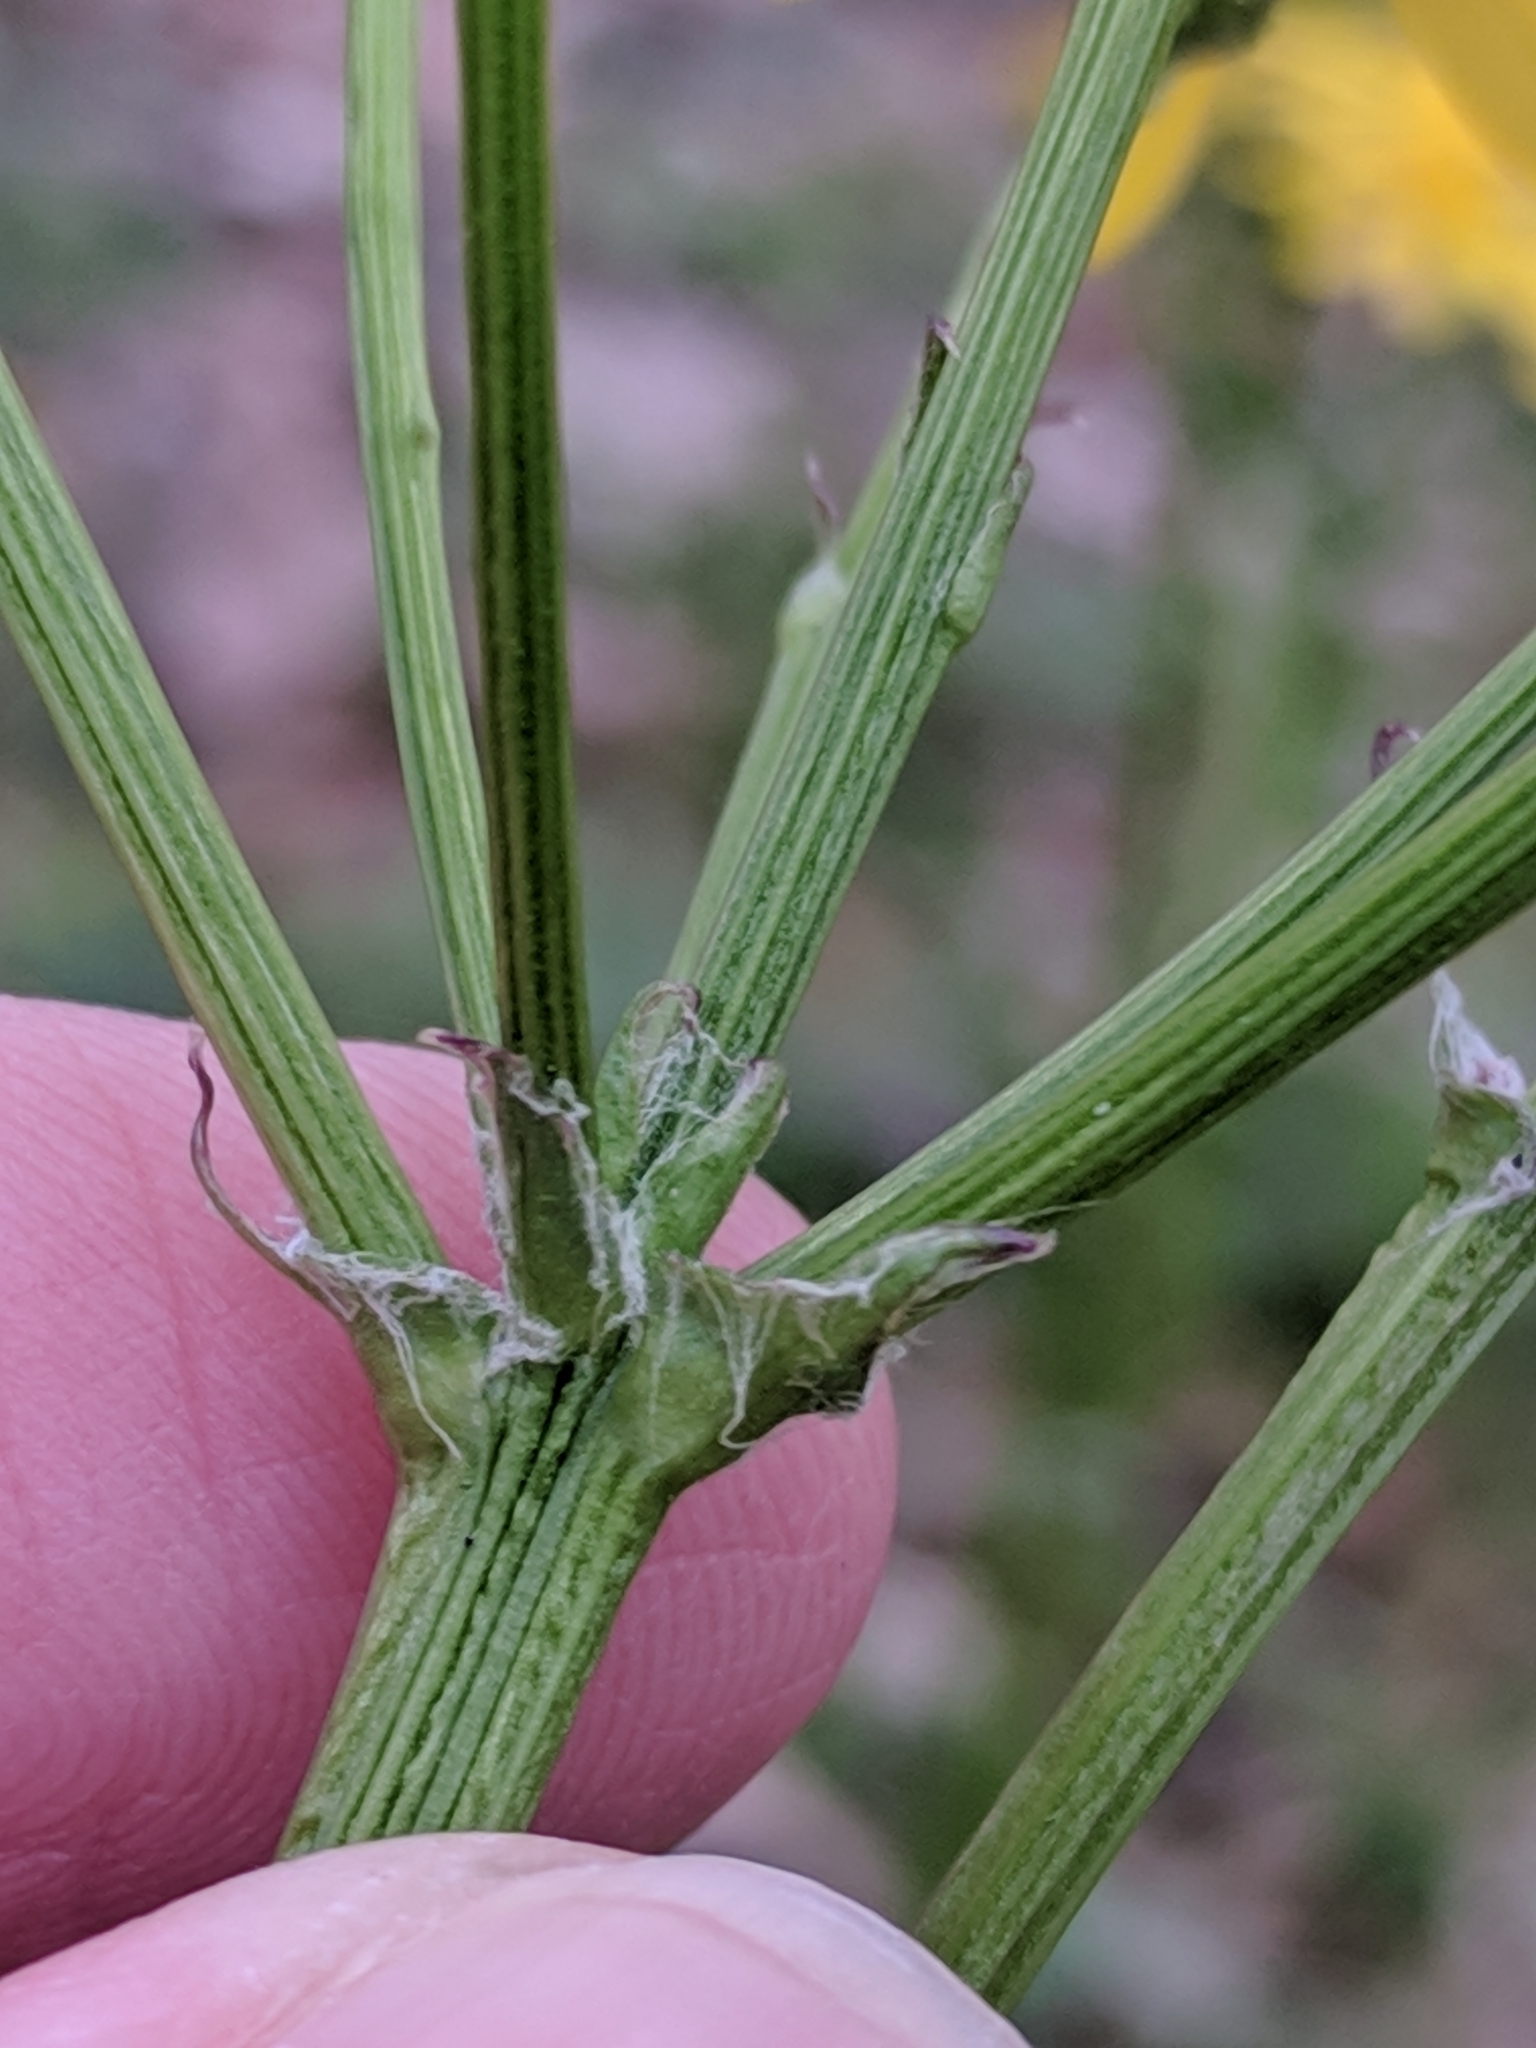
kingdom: Plantae
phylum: Tracheophyta
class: Magnoliopsida
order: Asterales
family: Asteraceae
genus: Packera
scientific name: Packera obovata
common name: Round-leaf ragwort
